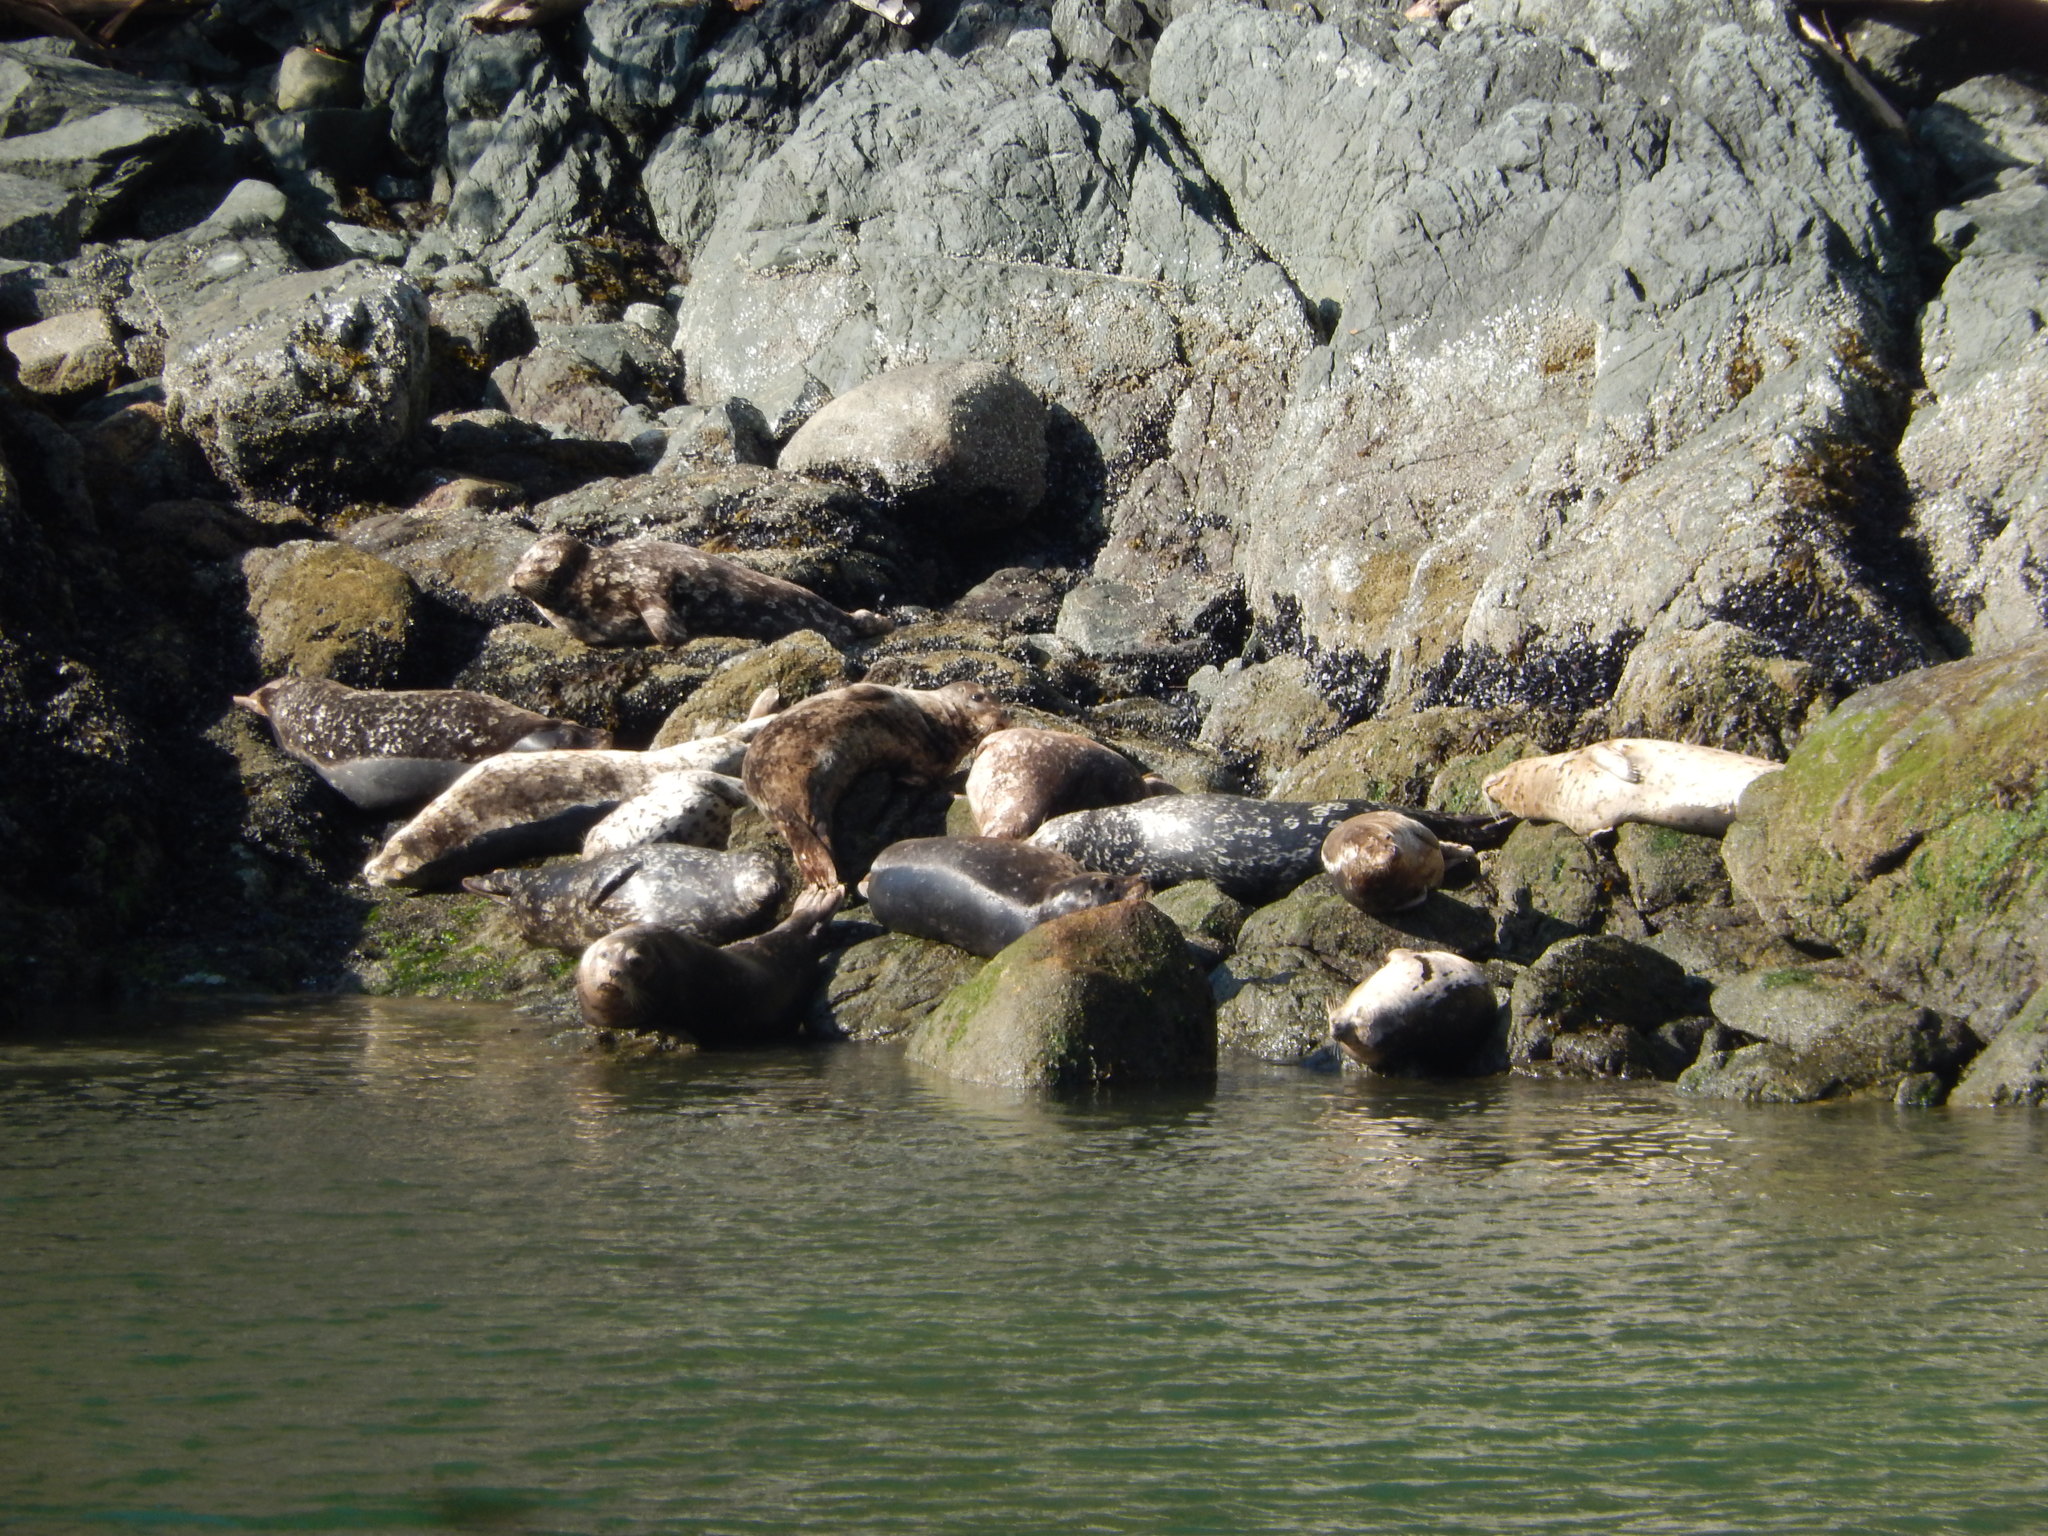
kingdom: Animalia
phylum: Chordata
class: Mammalia
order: Carnivora
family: Phocidae
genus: Phoca
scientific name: Phoca vitulina
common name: Harbor seal
